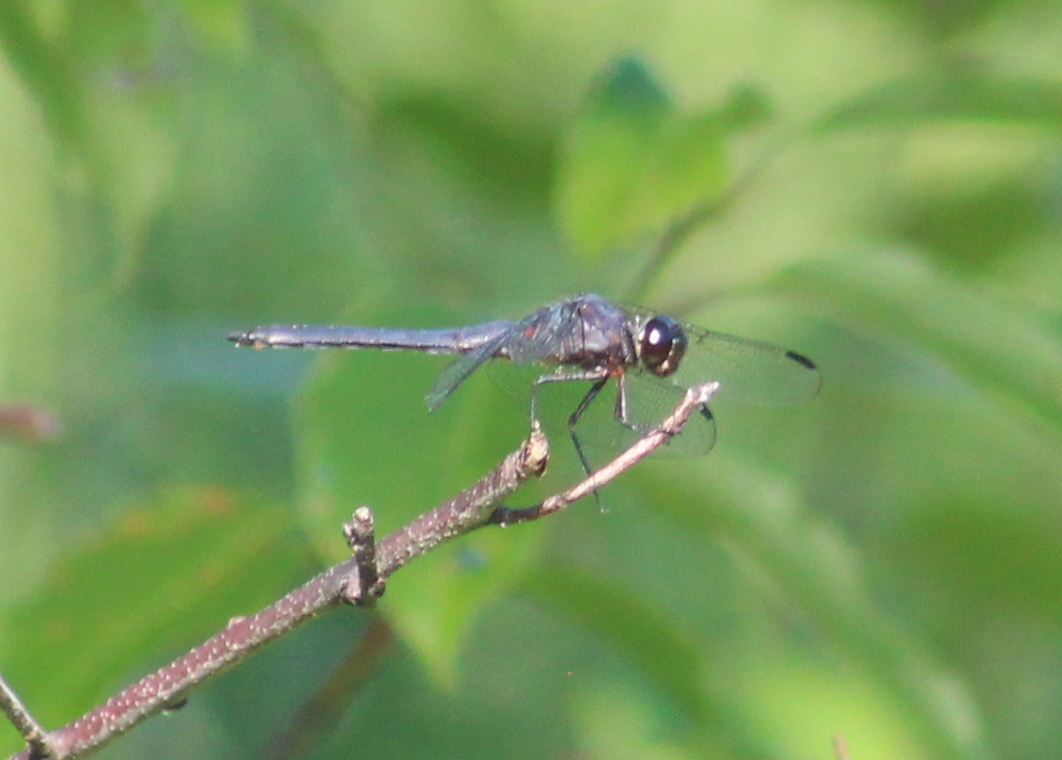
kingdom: Animalia
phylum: Arthropoda
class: Insecta
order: Odonata
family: Libellulidae
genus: Libellula
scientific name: Libellula incesta
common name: Slaty skimmer
